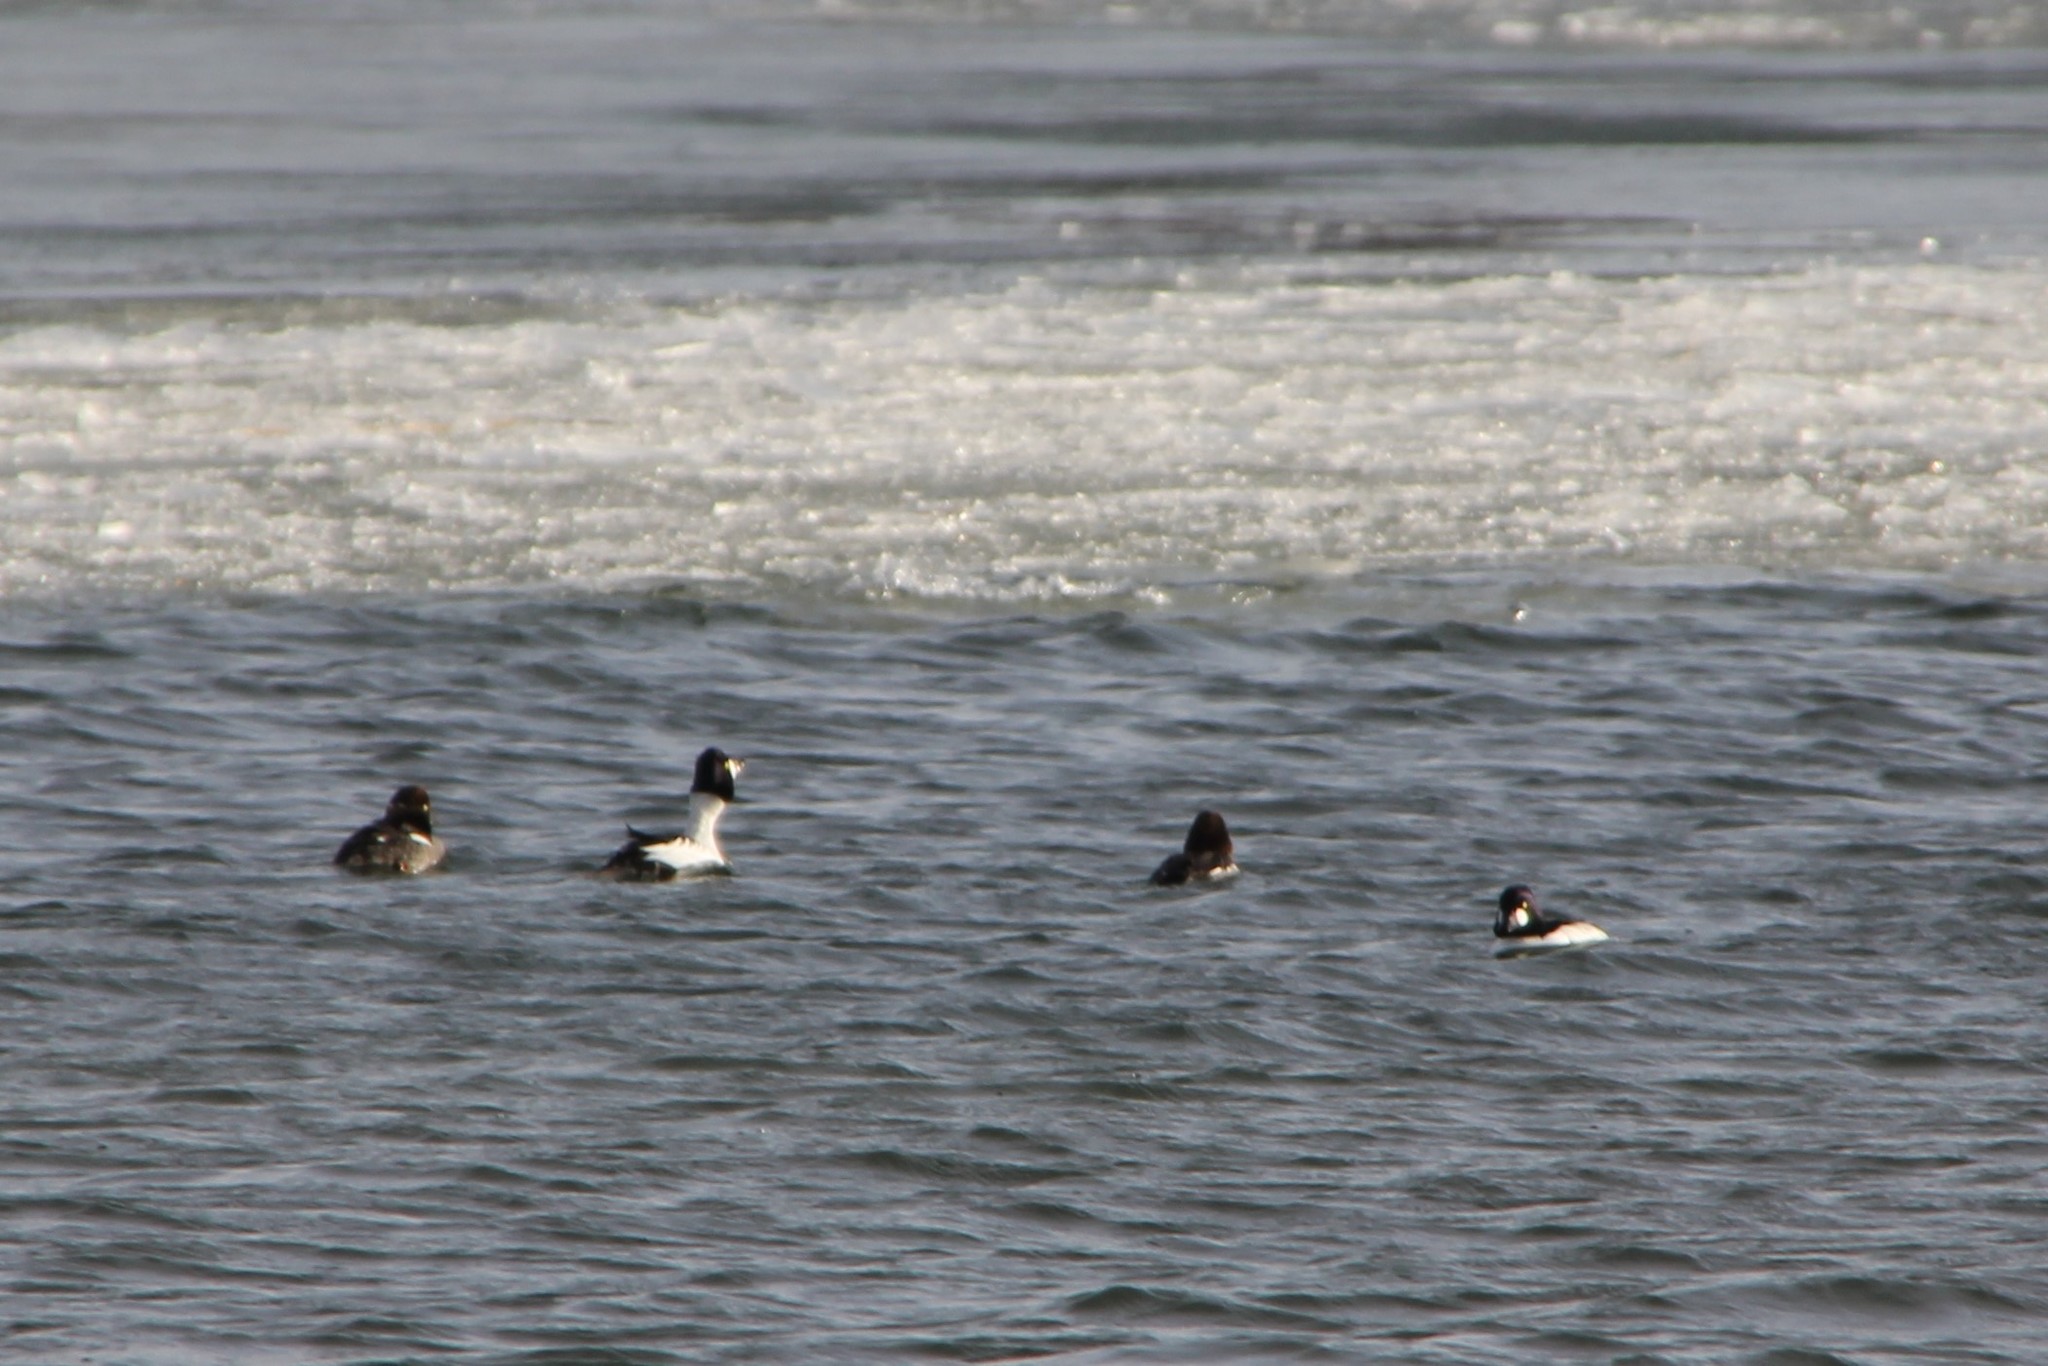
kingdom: Animalia
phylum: Chordata
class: Aves
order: Anseriformes
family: Anatidae
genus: Bucephala
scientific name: Bucephala clangula
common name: Common goldeneye
